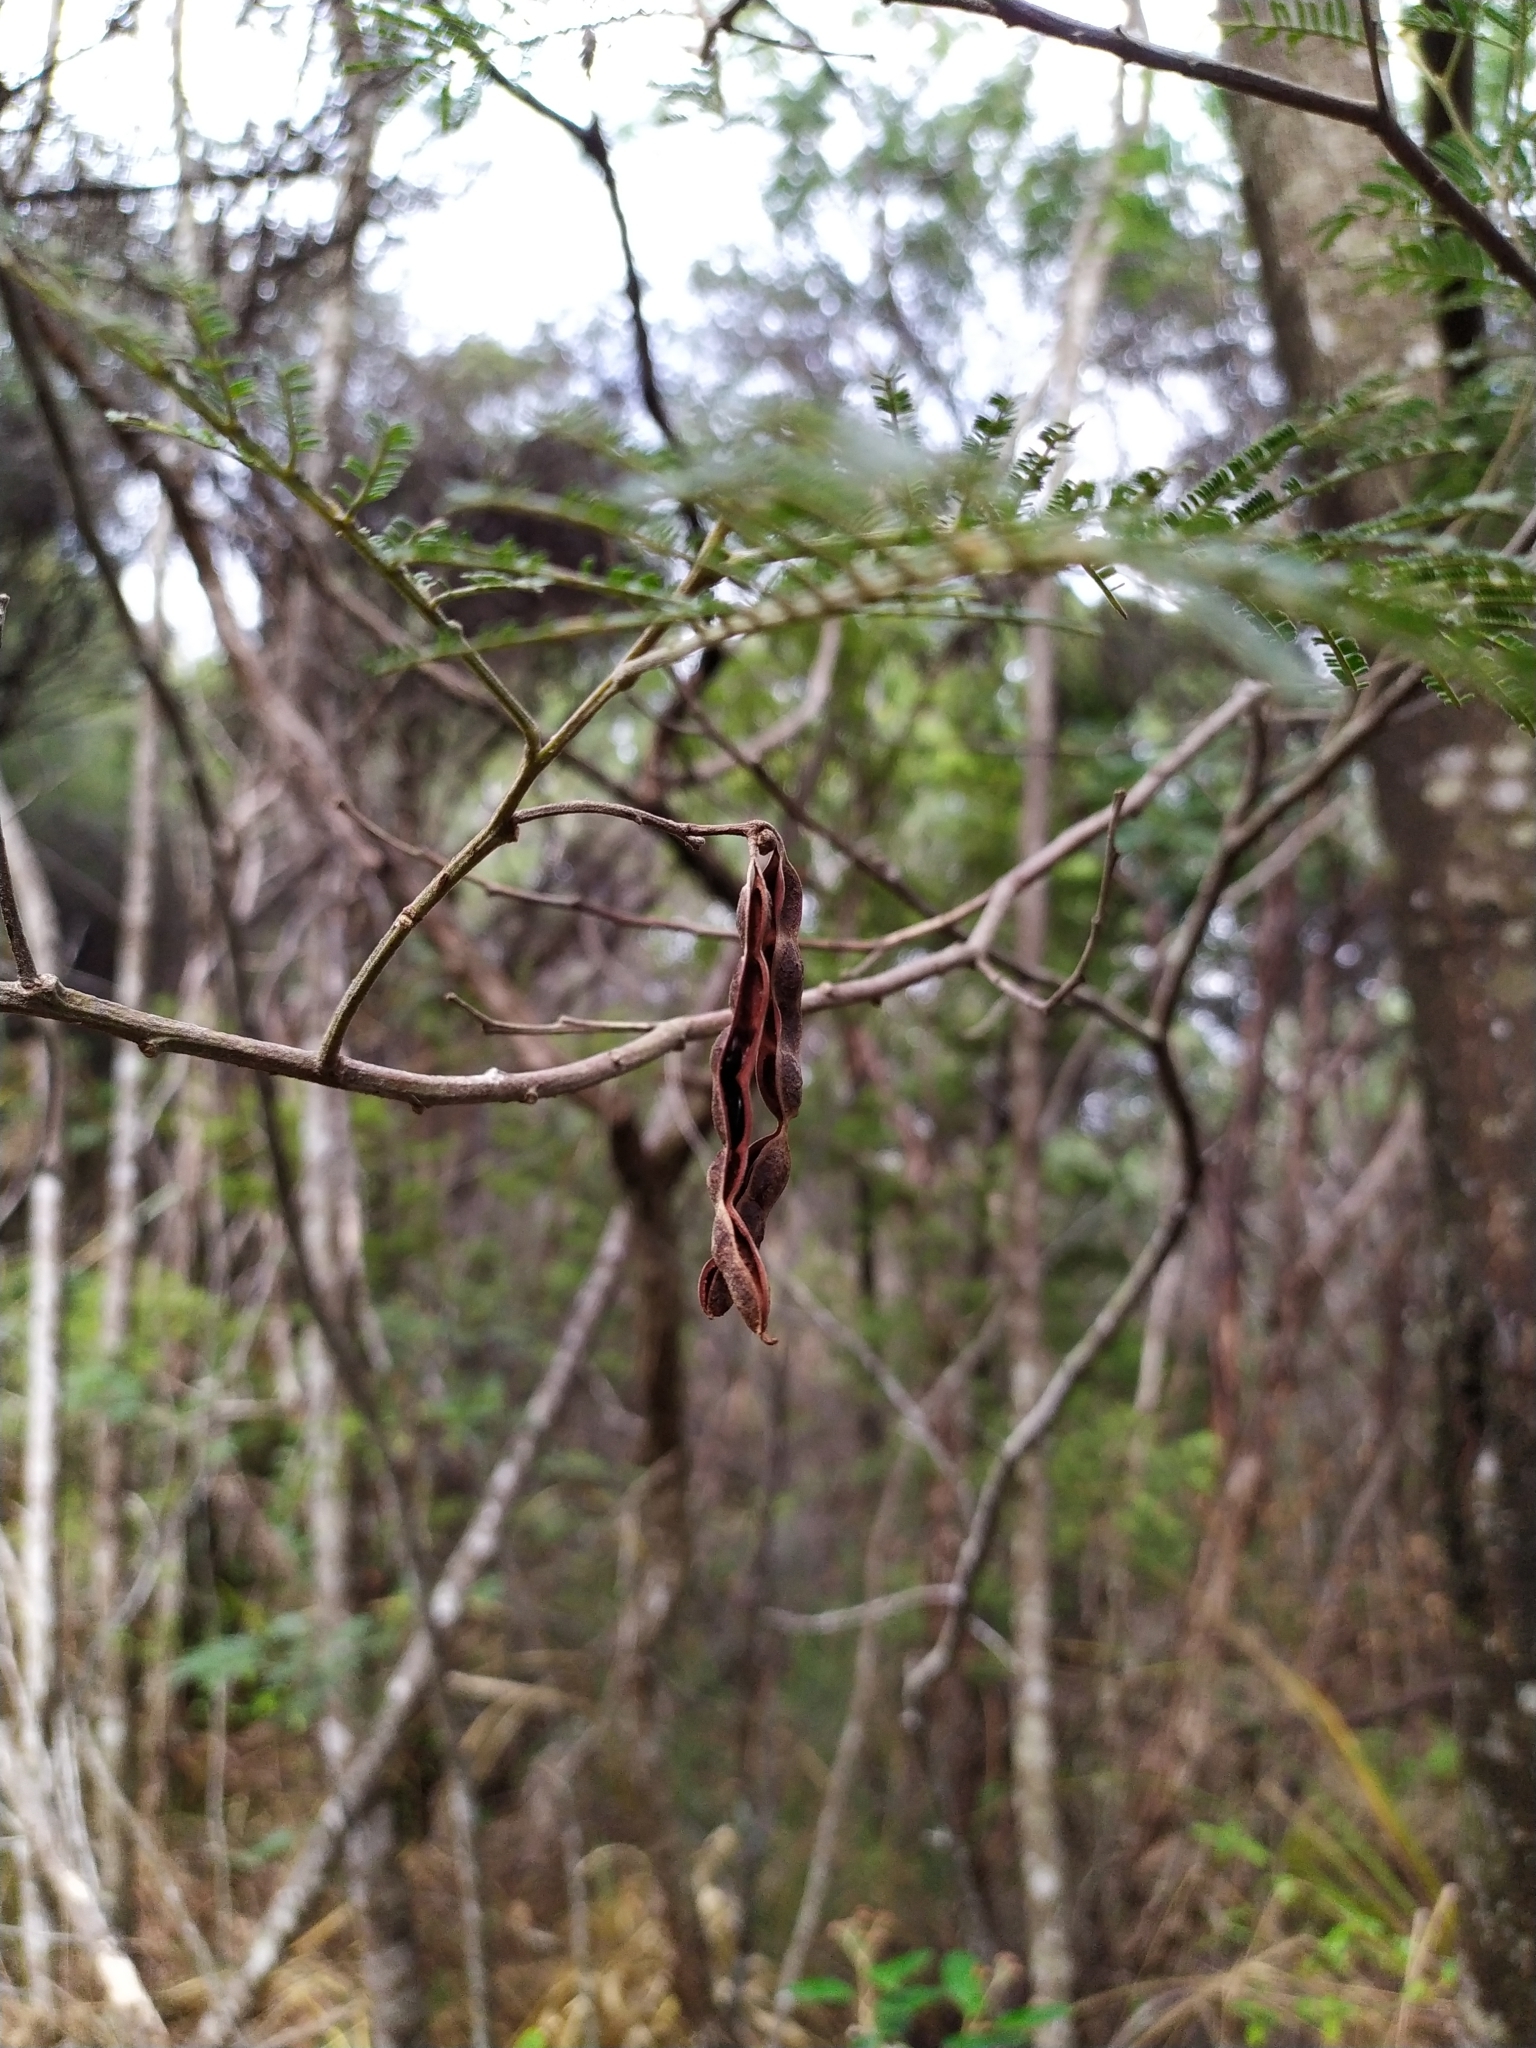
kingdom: Plantae
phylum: Tracheophyta
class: Magnoliopsida
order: Fabales
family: Fabaceae
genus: Acacia
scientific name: Acacia mearnsii
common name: Black wattle
